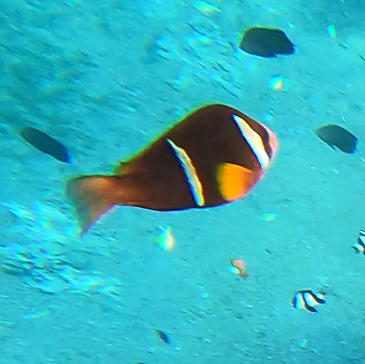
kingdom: Animalia
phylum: Chordata
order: Perciformes
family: Pomacentridae
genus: Amphiprion
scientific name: Amphiprion bicinctus
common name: Two-banded anemonefish
